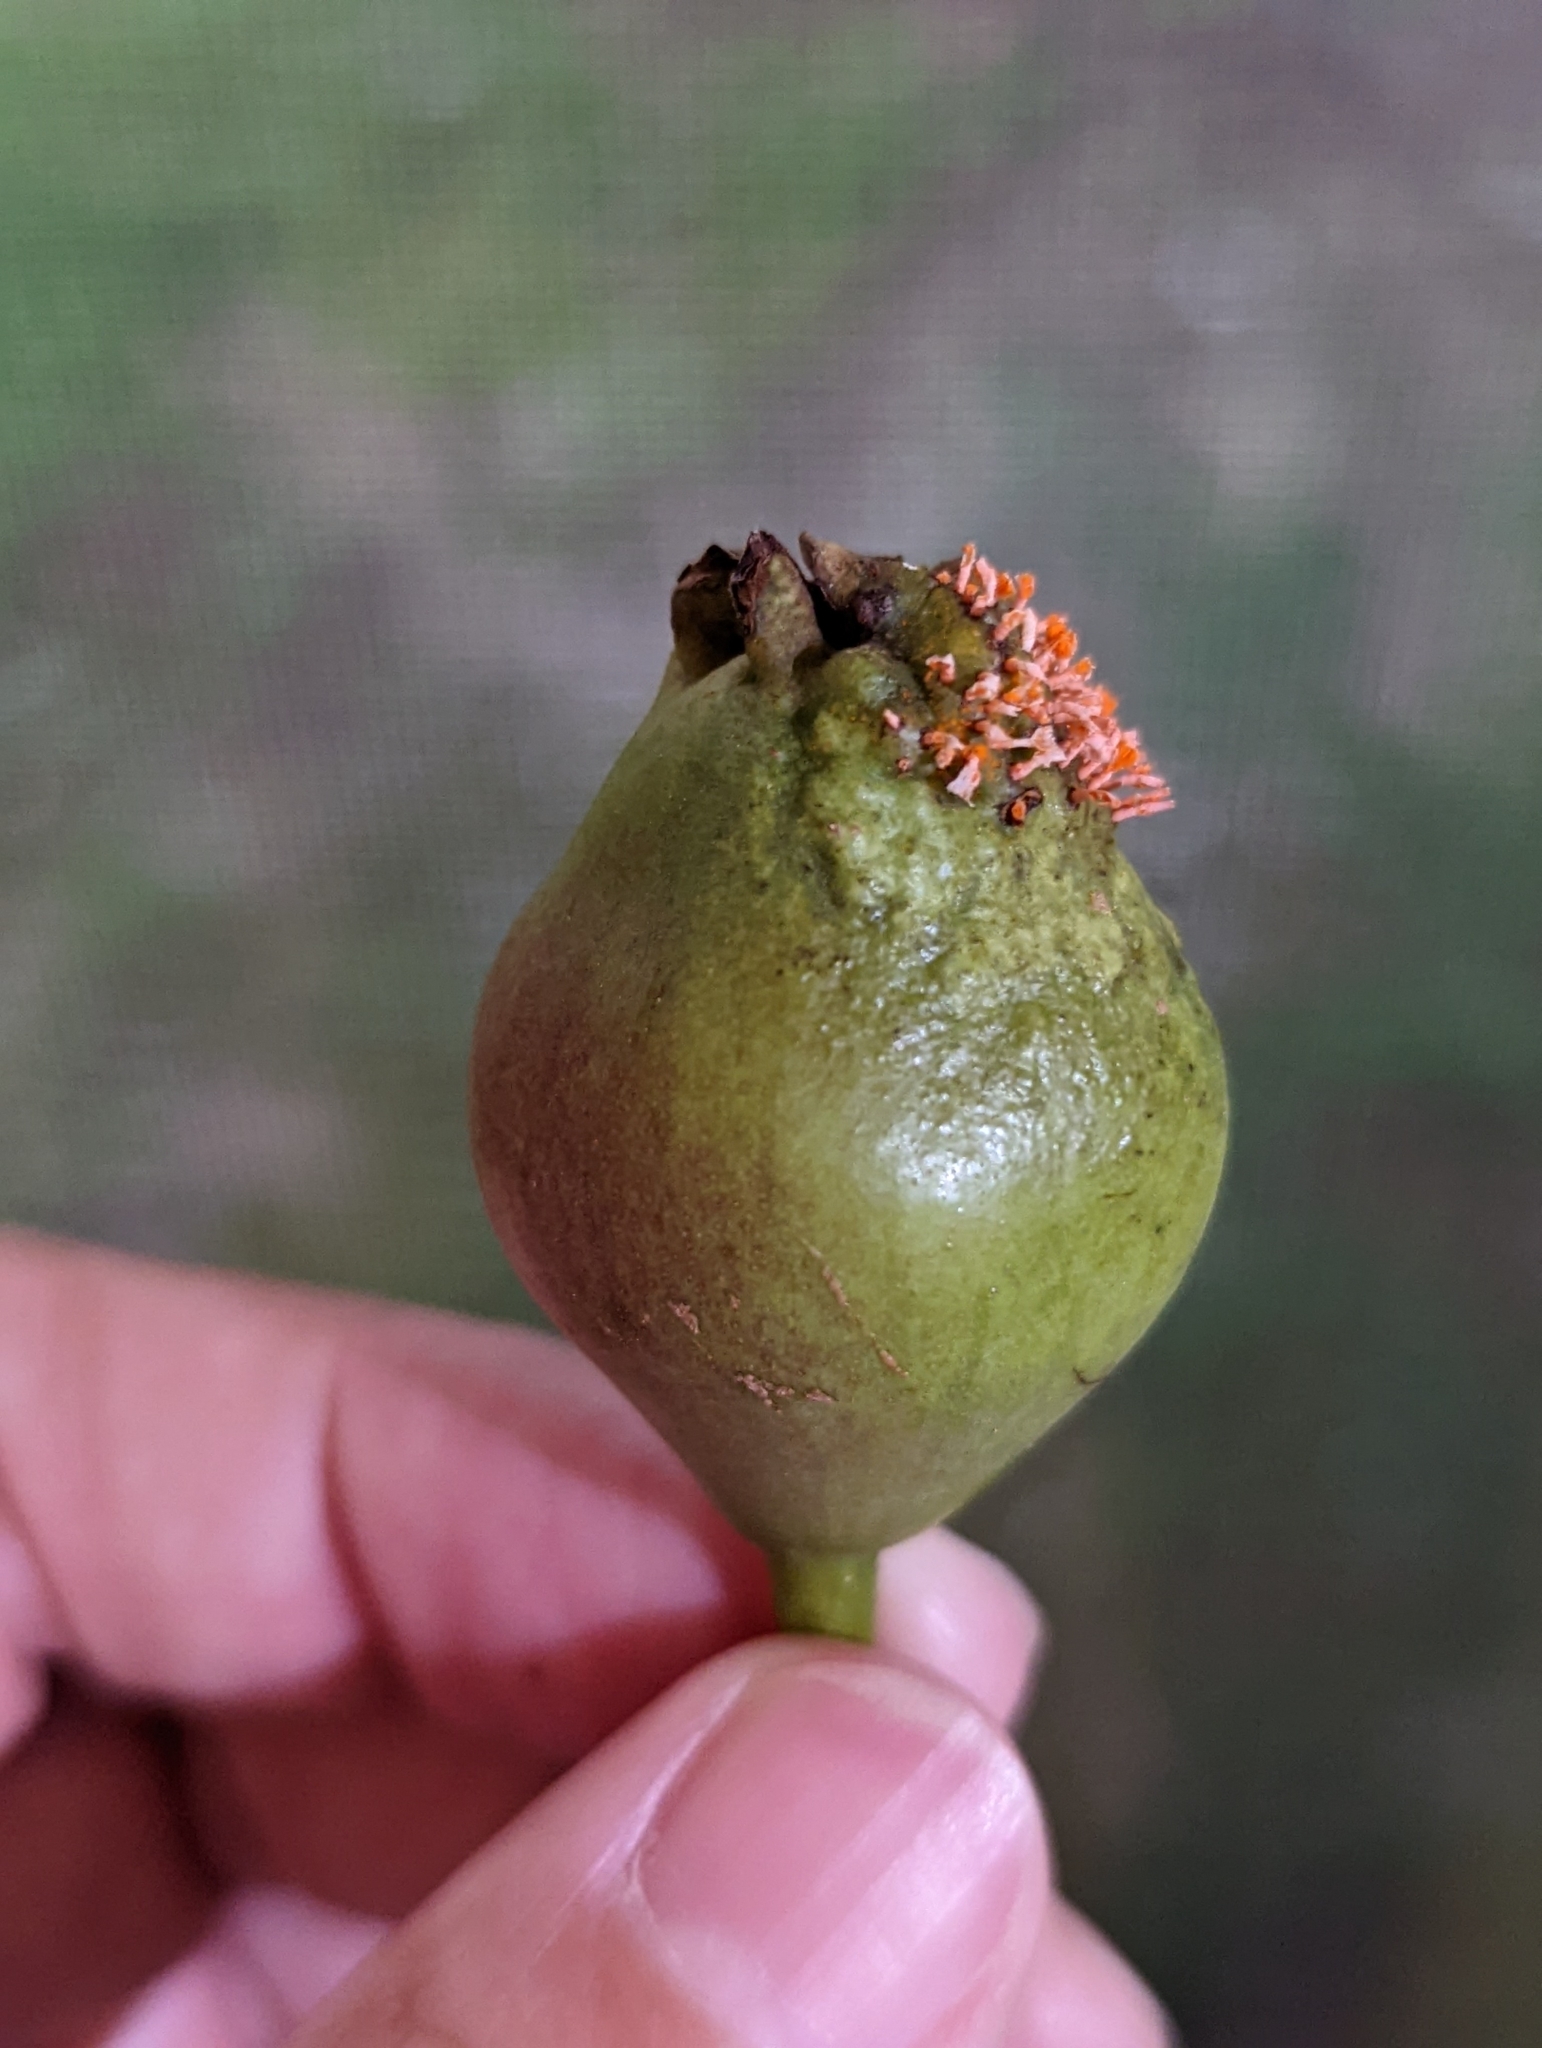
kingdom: Fungi
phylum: Basidiomycota
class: Pucciniomycetes
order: Pucciniales
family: Gymnosporangiaceae
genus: Gymnosporangium
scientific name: Gymnosporangium clavipes
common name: Quince rust
